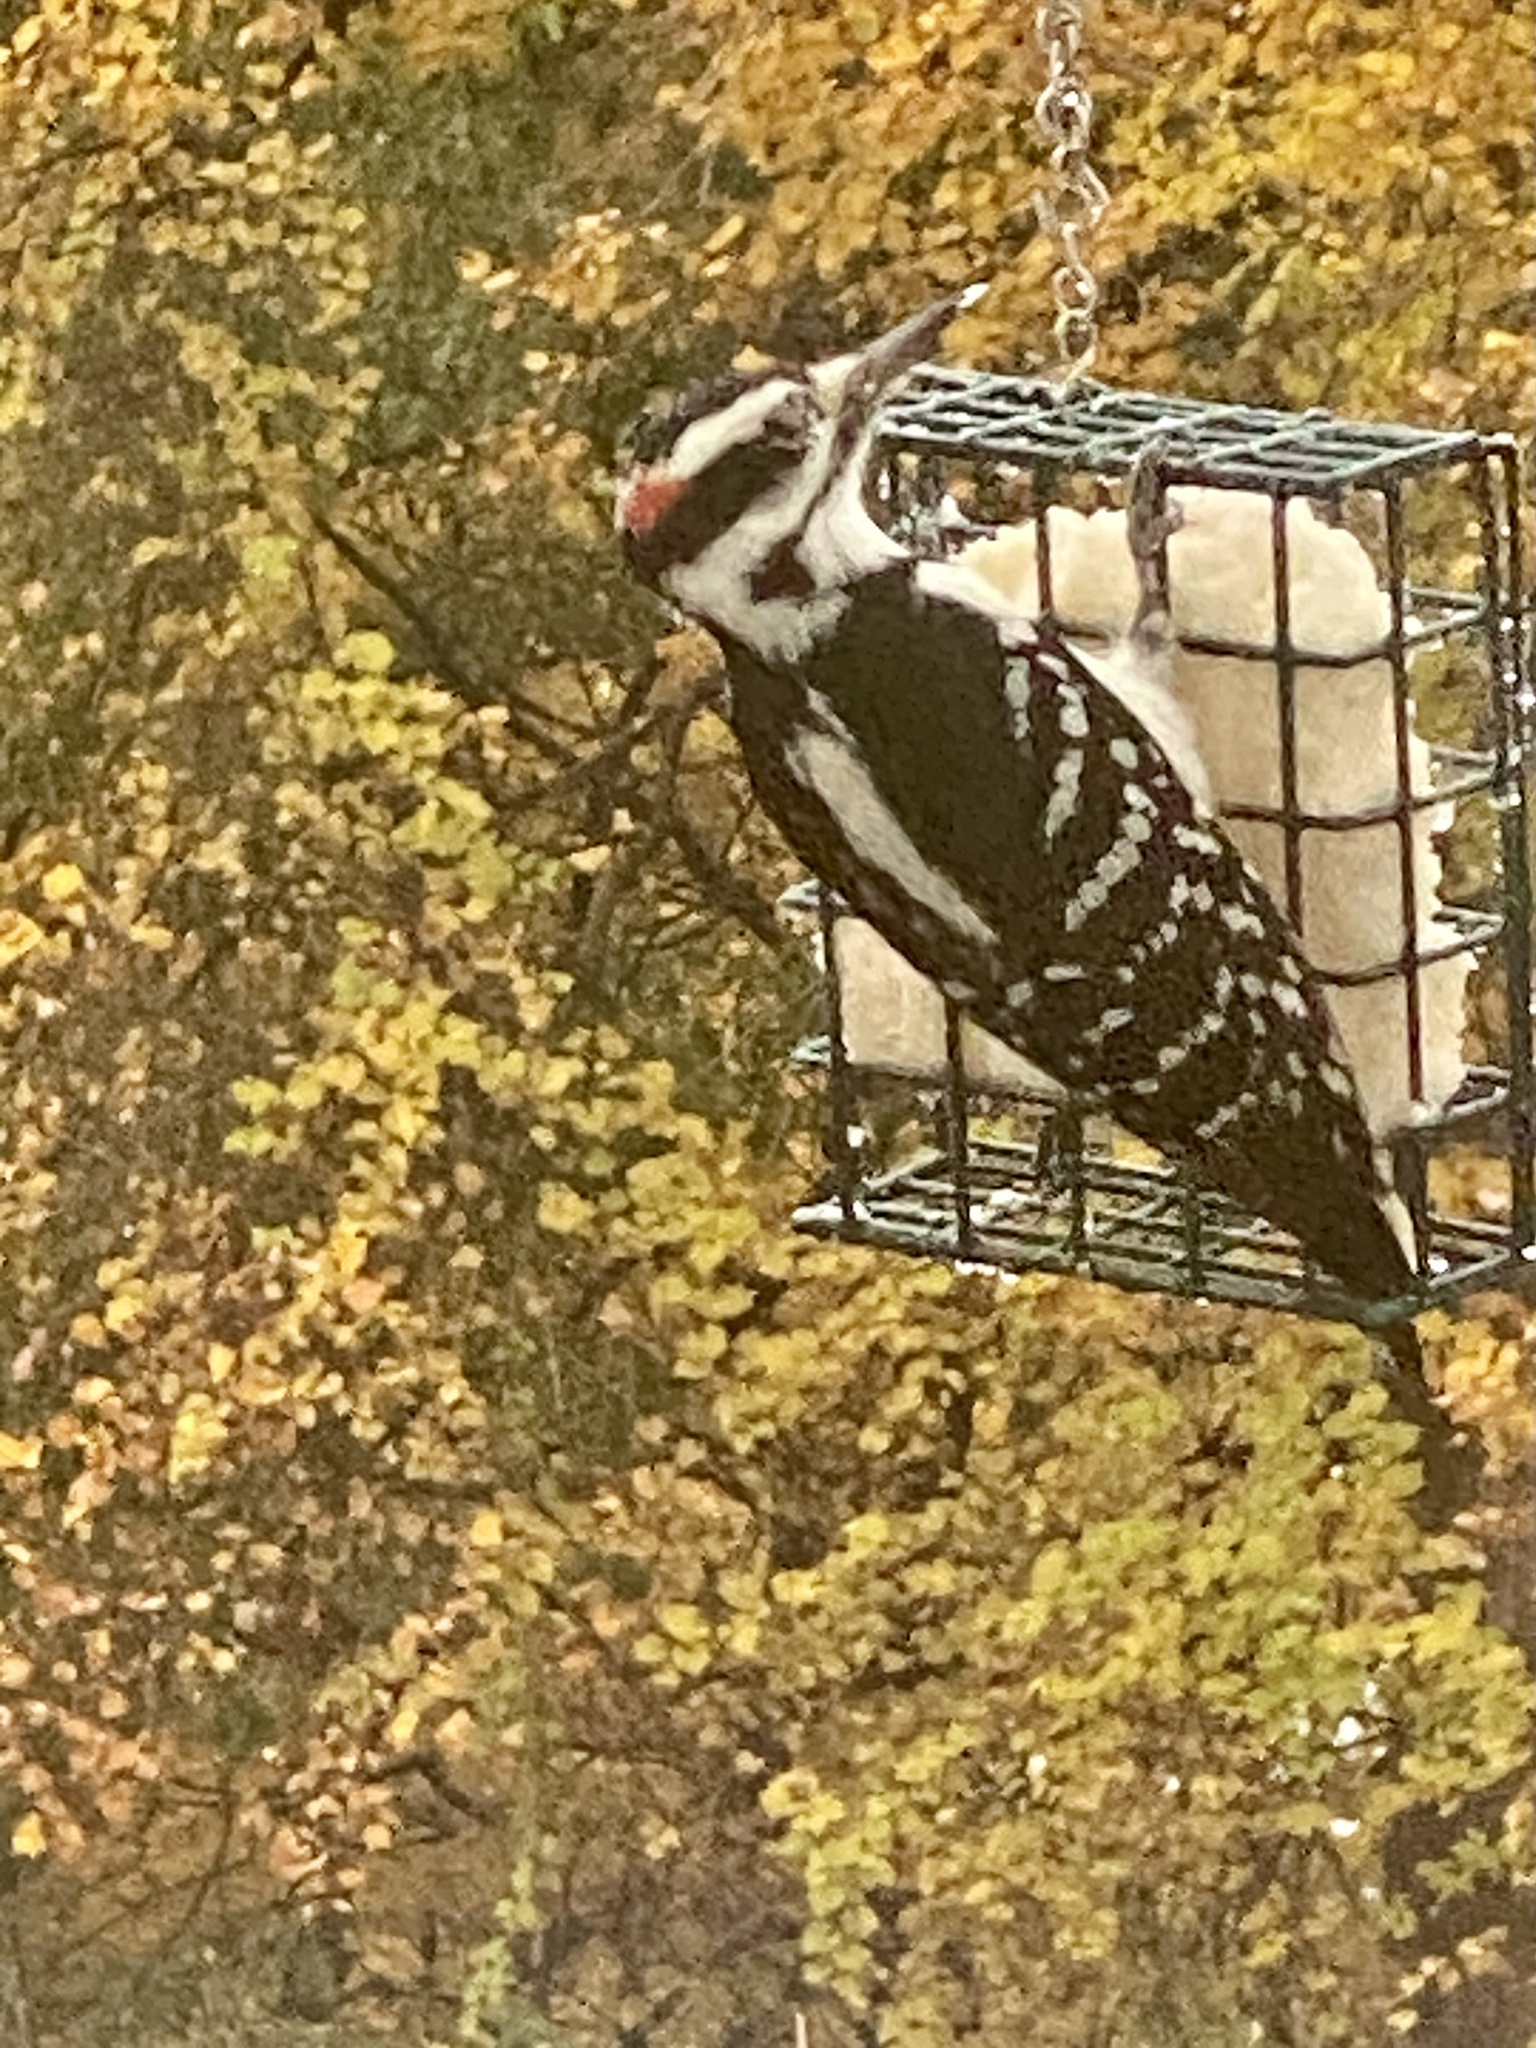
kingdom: Animalia
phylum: Chordata
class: Aves
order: Piciformes
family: Picidae
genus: Leuconotopicus
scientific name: Leuconotopicus villosus
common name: Hairy woodpecker
